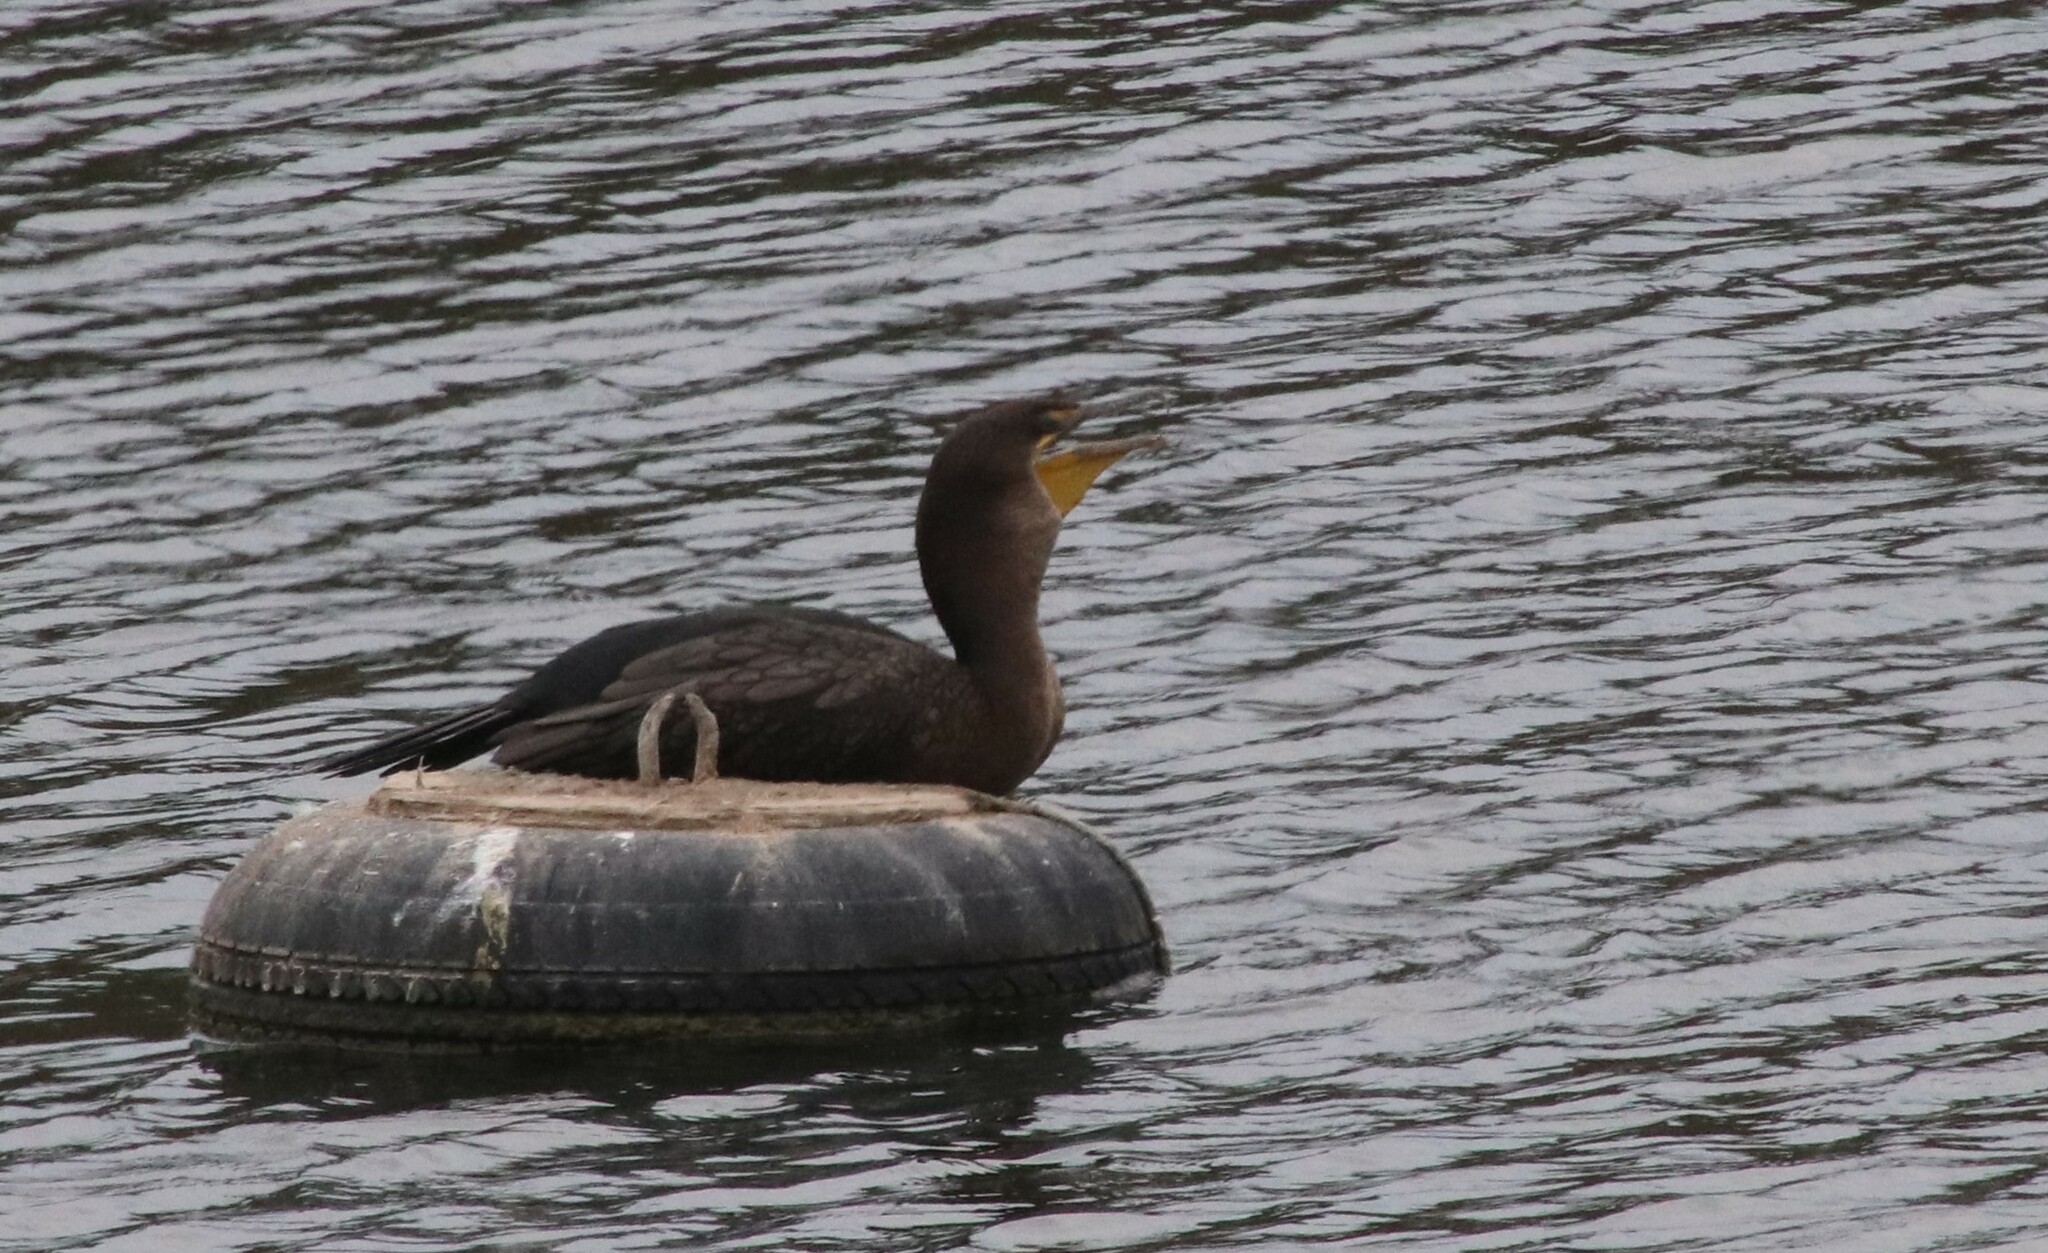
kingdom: Animalia
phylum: Chordata
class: Aves
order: Suliformes
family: Phalacrocoracidae
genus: Phalacrocorax
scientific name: Phalacrocorax auritus
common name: Double-crested cormorant
